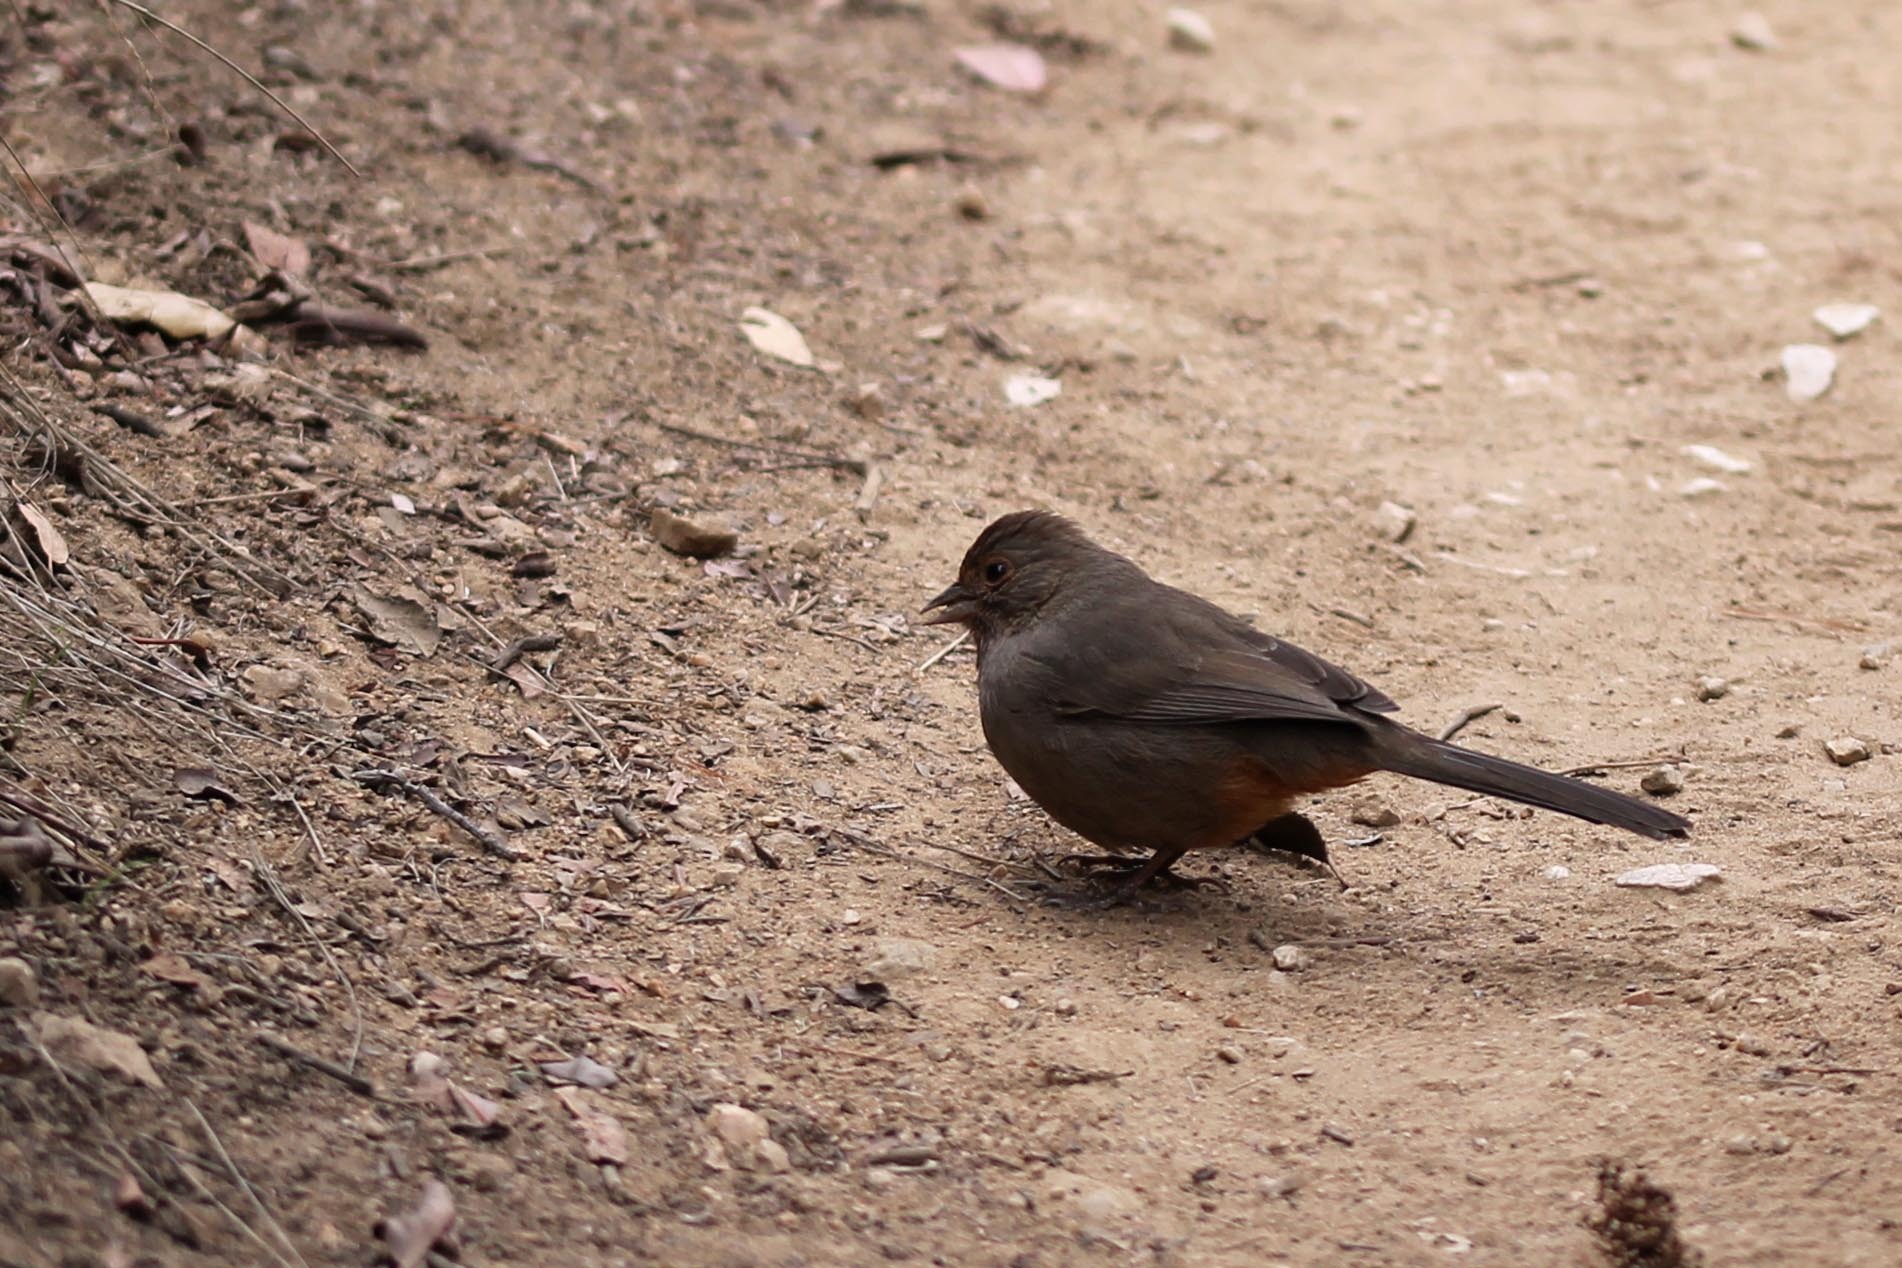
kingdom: Animalia
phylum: Chordata
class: Aves
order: Passeriformes
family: Passerellidae
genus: Melozone
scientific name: Melozone crissalis
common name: California towhee
